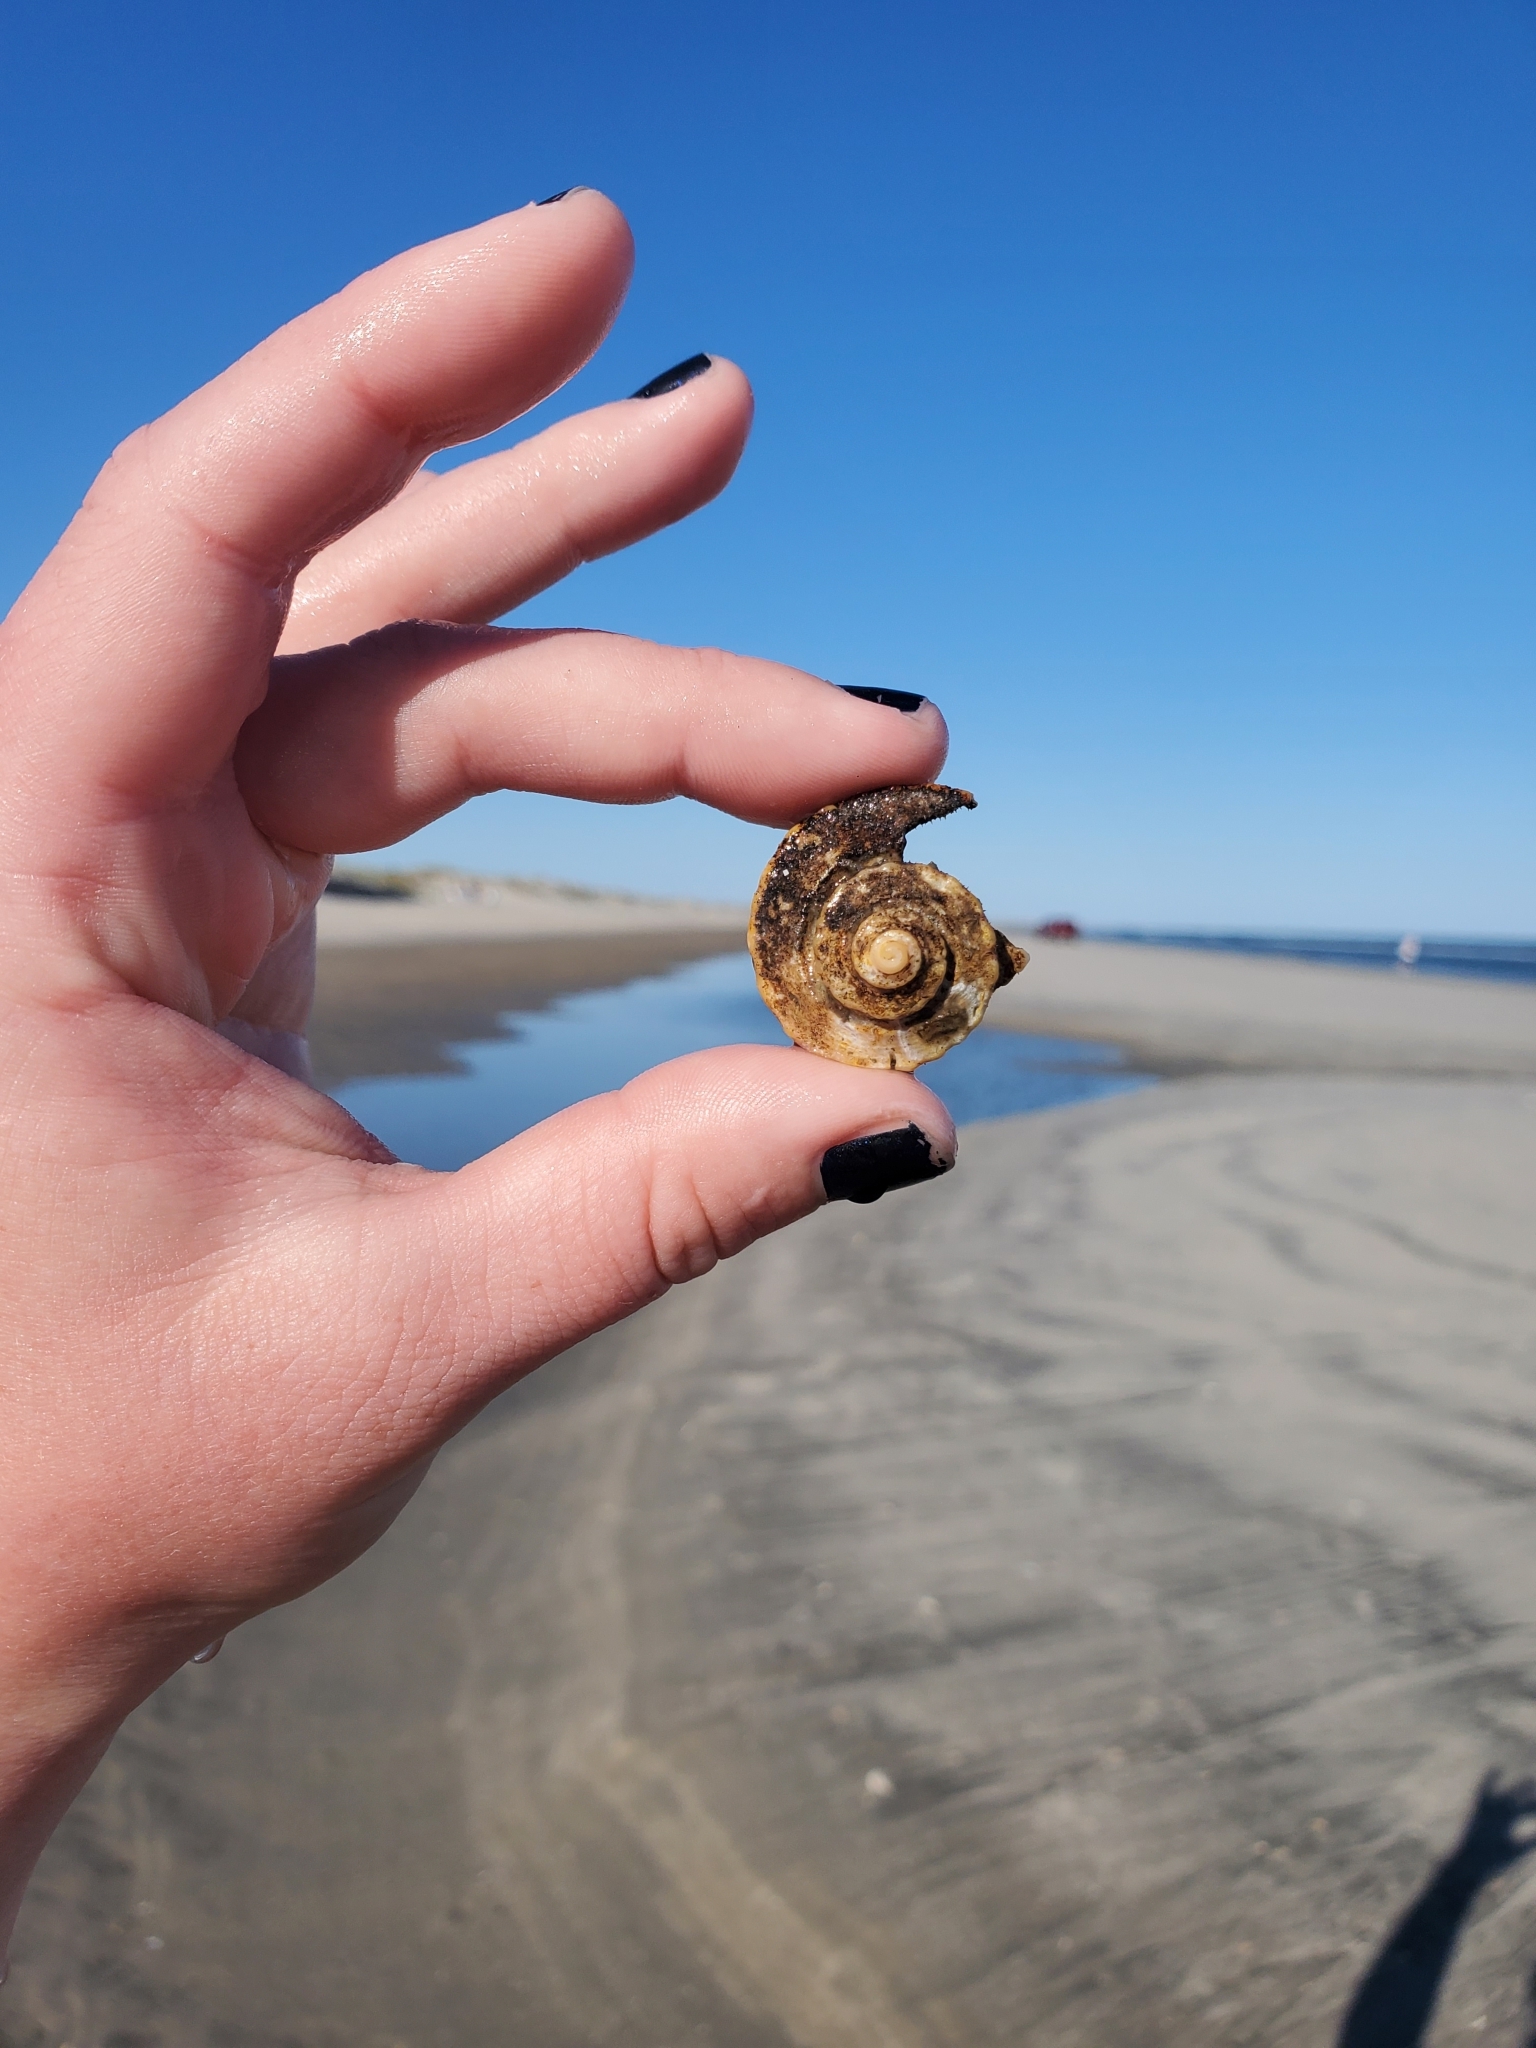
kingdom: Animalia
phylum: Mollusca
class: Gastropoda
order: Neogastropoda
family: Busyconidae
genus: Busycotypus
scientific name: Busycotypus canaliculatus
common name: Channeled whelk
